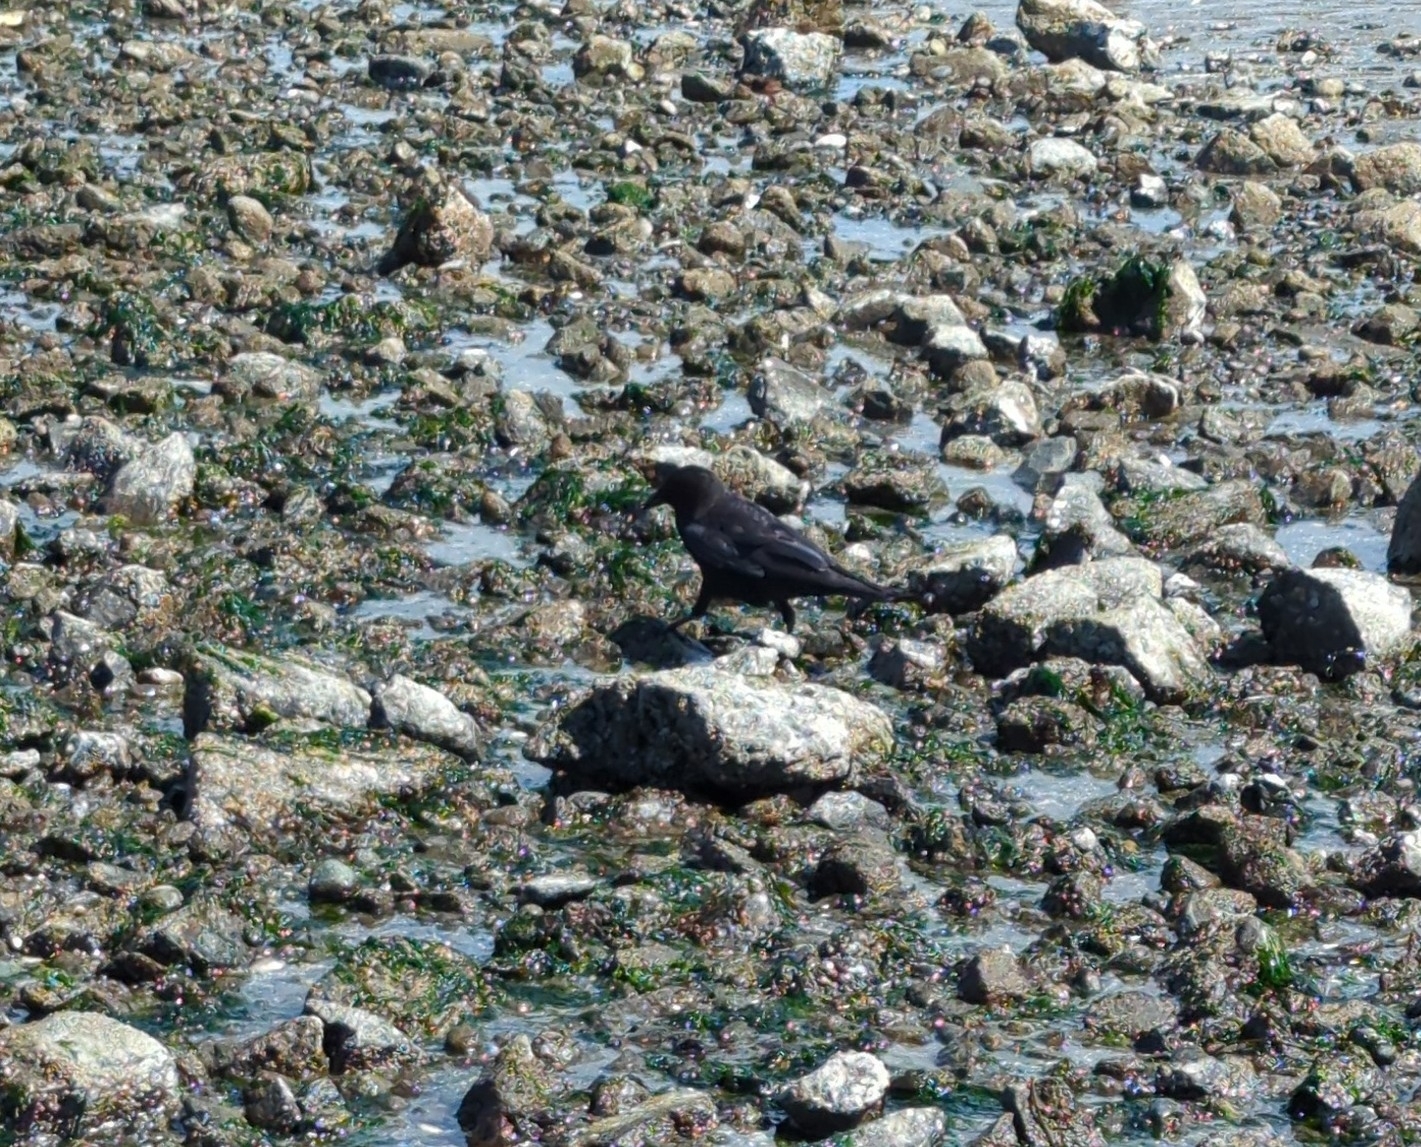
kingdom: Animalia
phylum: Chordata
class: Aves
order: Passeriformes
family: Corvidae
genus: Corvus
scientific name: Corvus brachyrhynchos
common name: American crow
